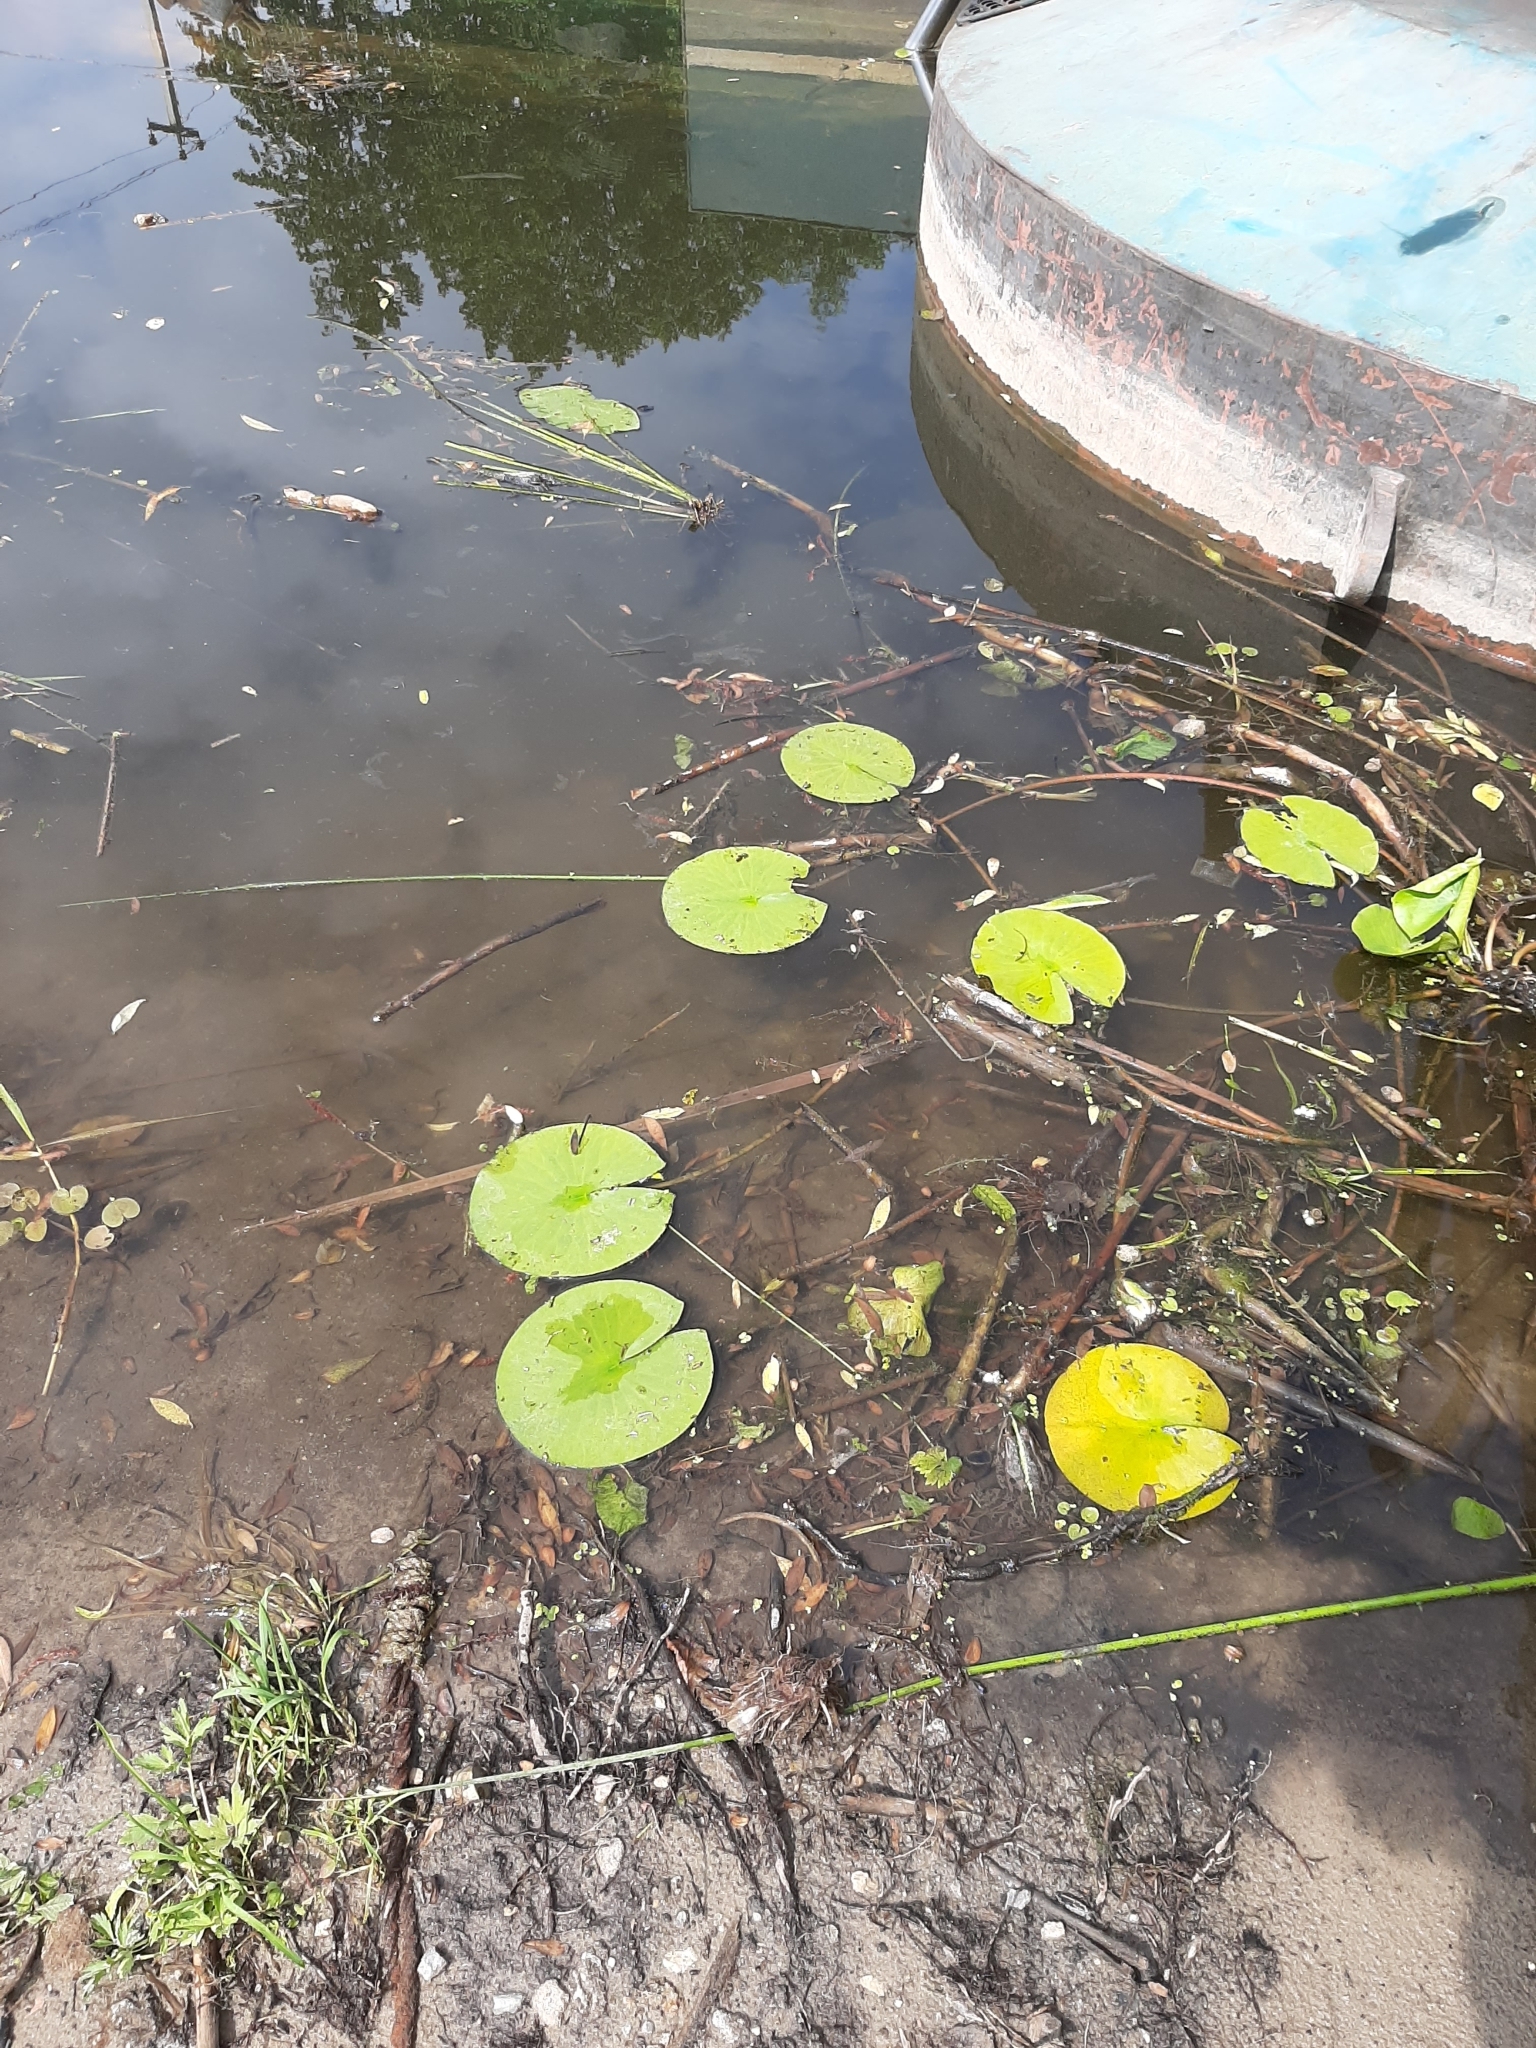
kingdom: Plantae
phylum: Tracheophyta
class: Magnoliopsida
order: Nymphaeales
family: Nymphaeaceae
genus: Nymphaea
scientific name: Nymphaea candida
